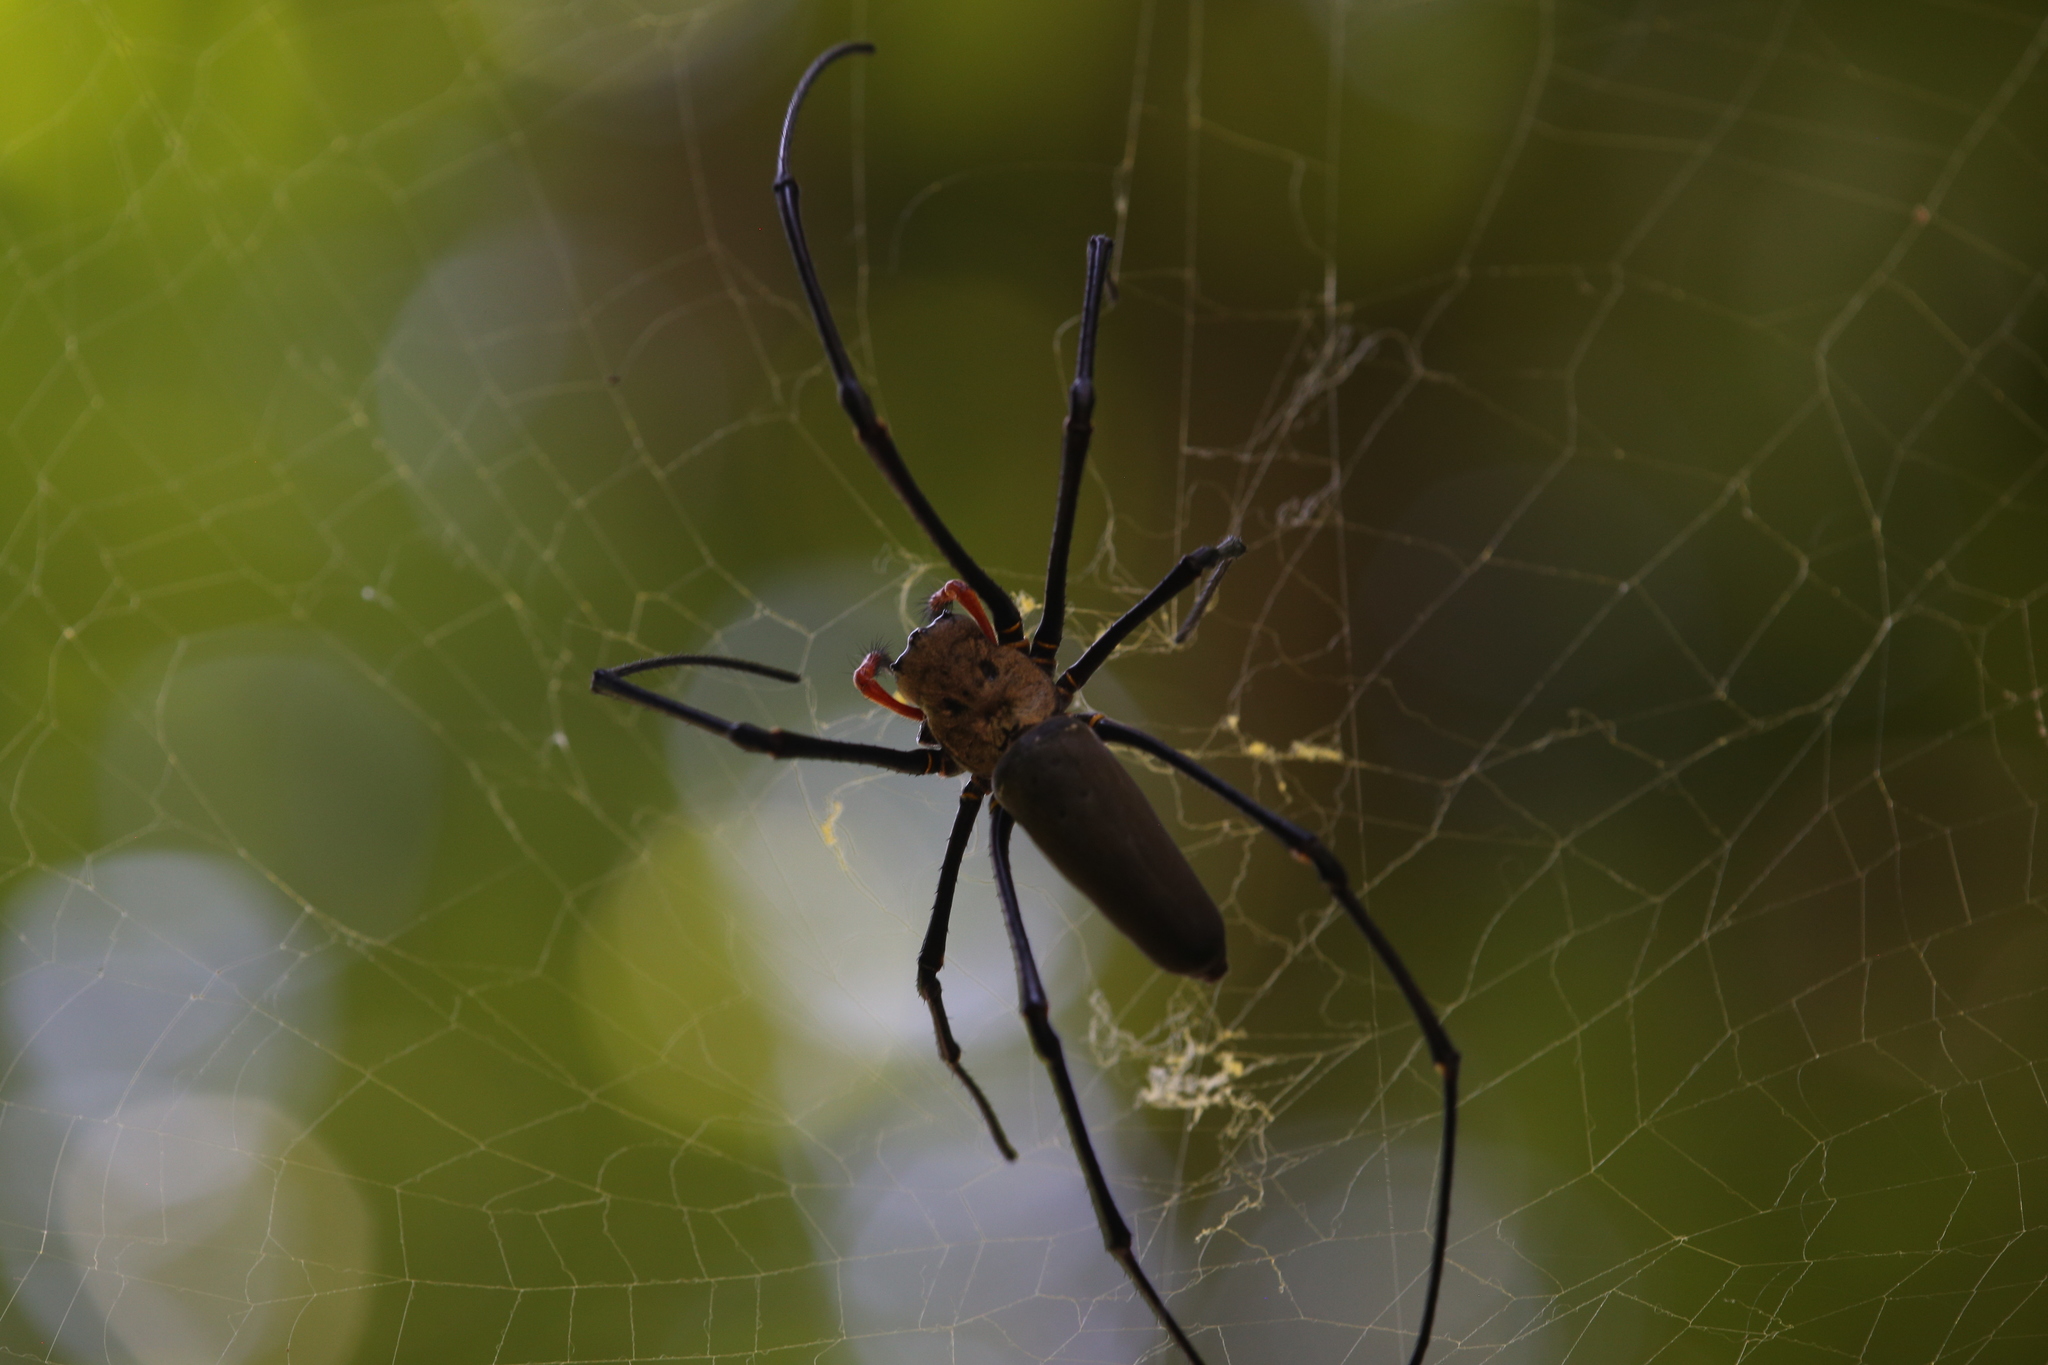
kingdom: Animalia
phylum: Arthropoda
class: Arachnida
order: Araneae
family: Araneidae
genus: Nephila
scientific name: Nephila pilipes
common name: Giant golden orb weaver
